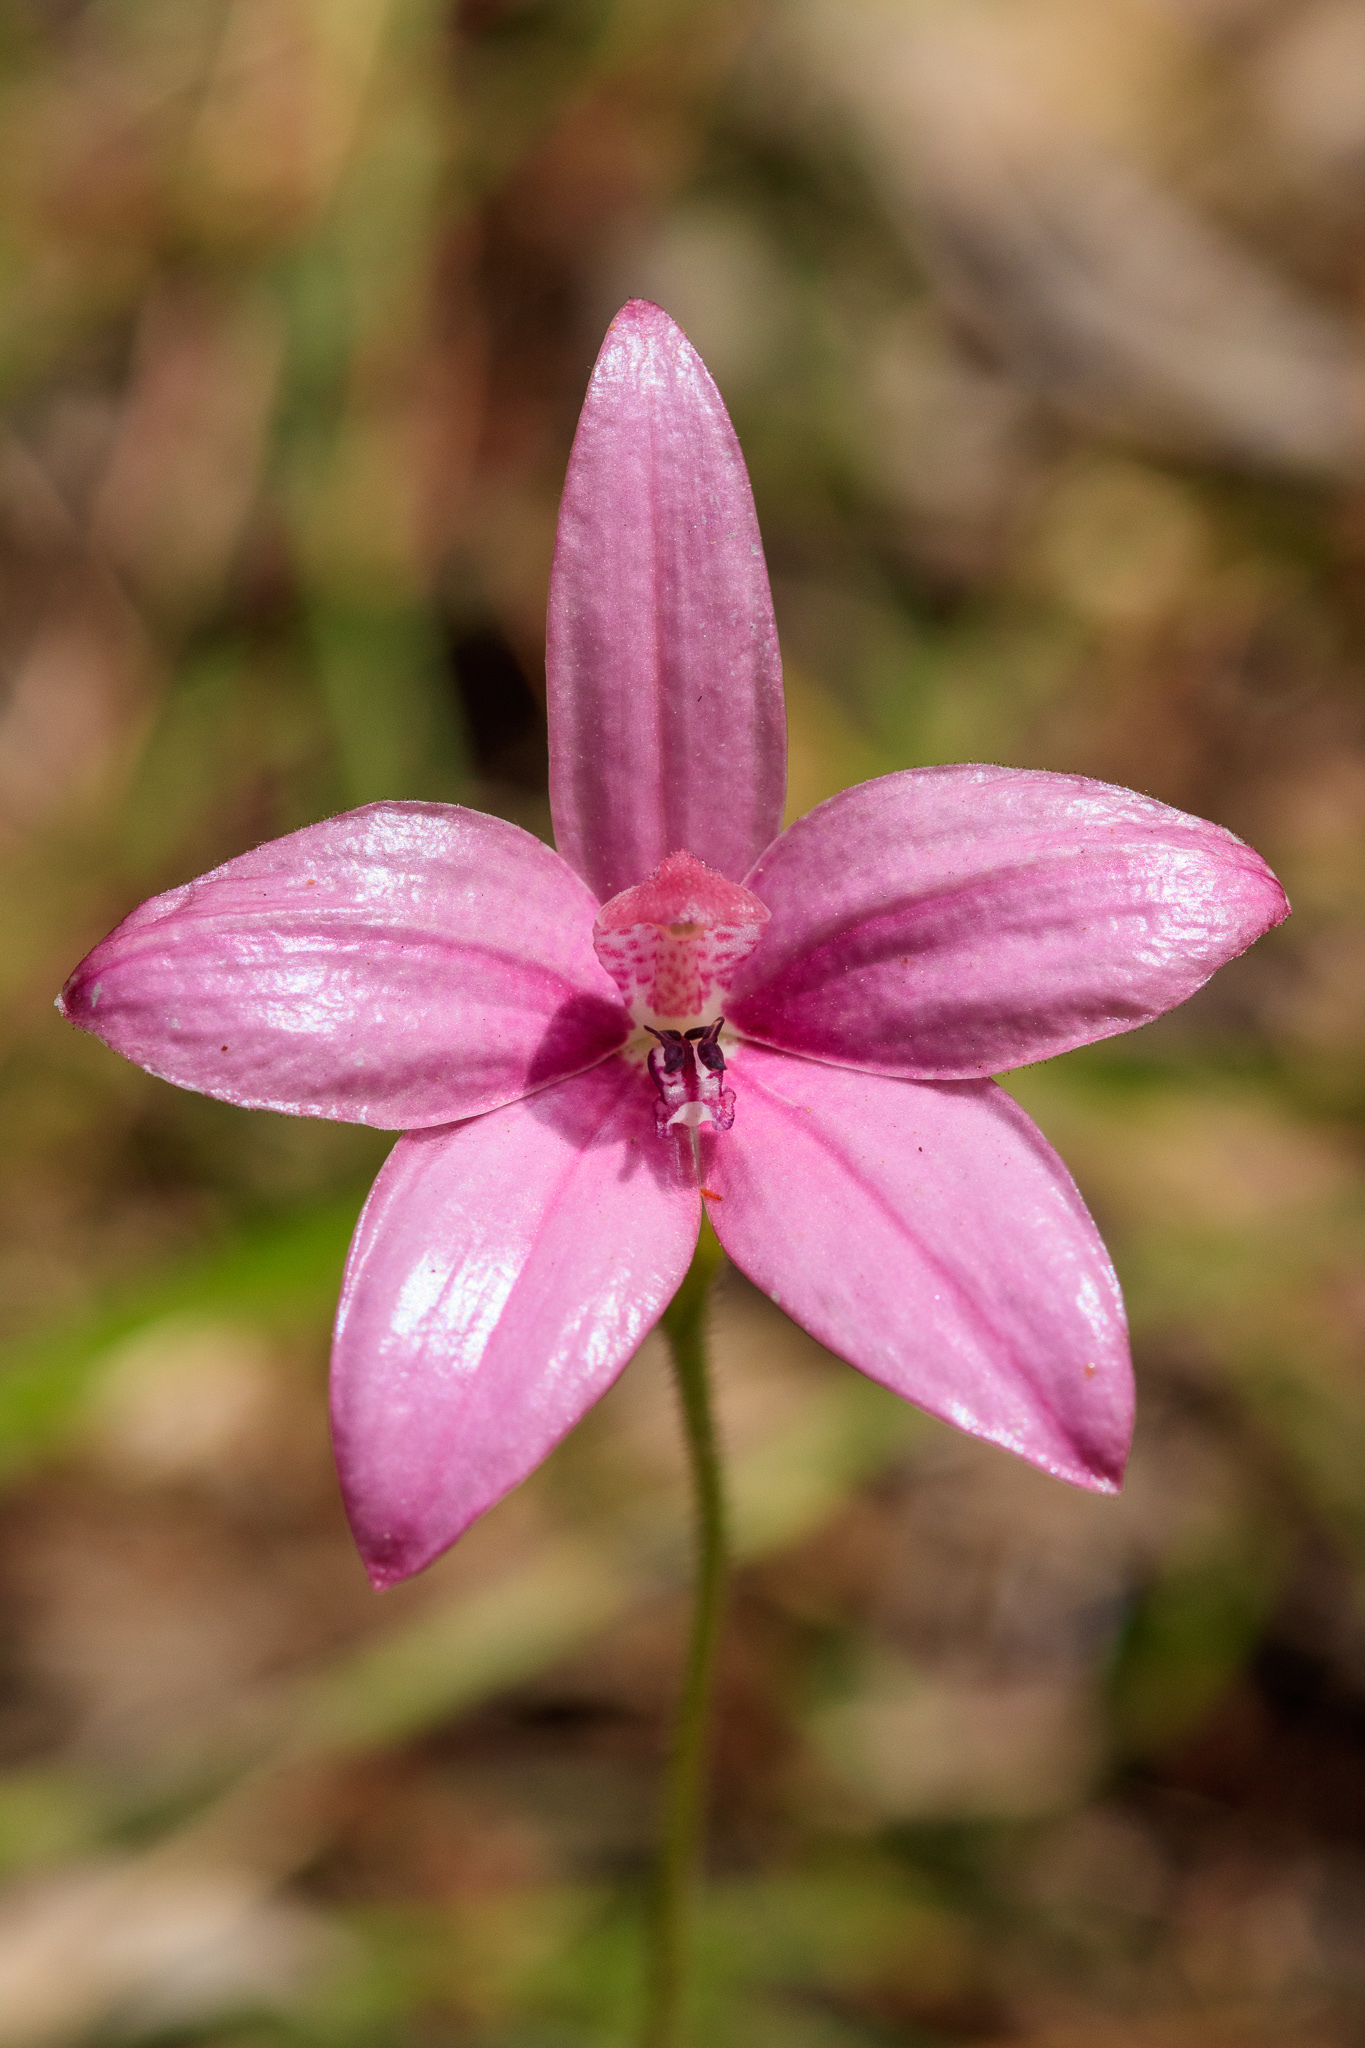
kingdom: Plantae
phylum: Tracheophyta
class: Liliopsida
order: Asparagales
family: Orchidaceae
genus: Caladenia
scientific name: Caladenia emarginata
